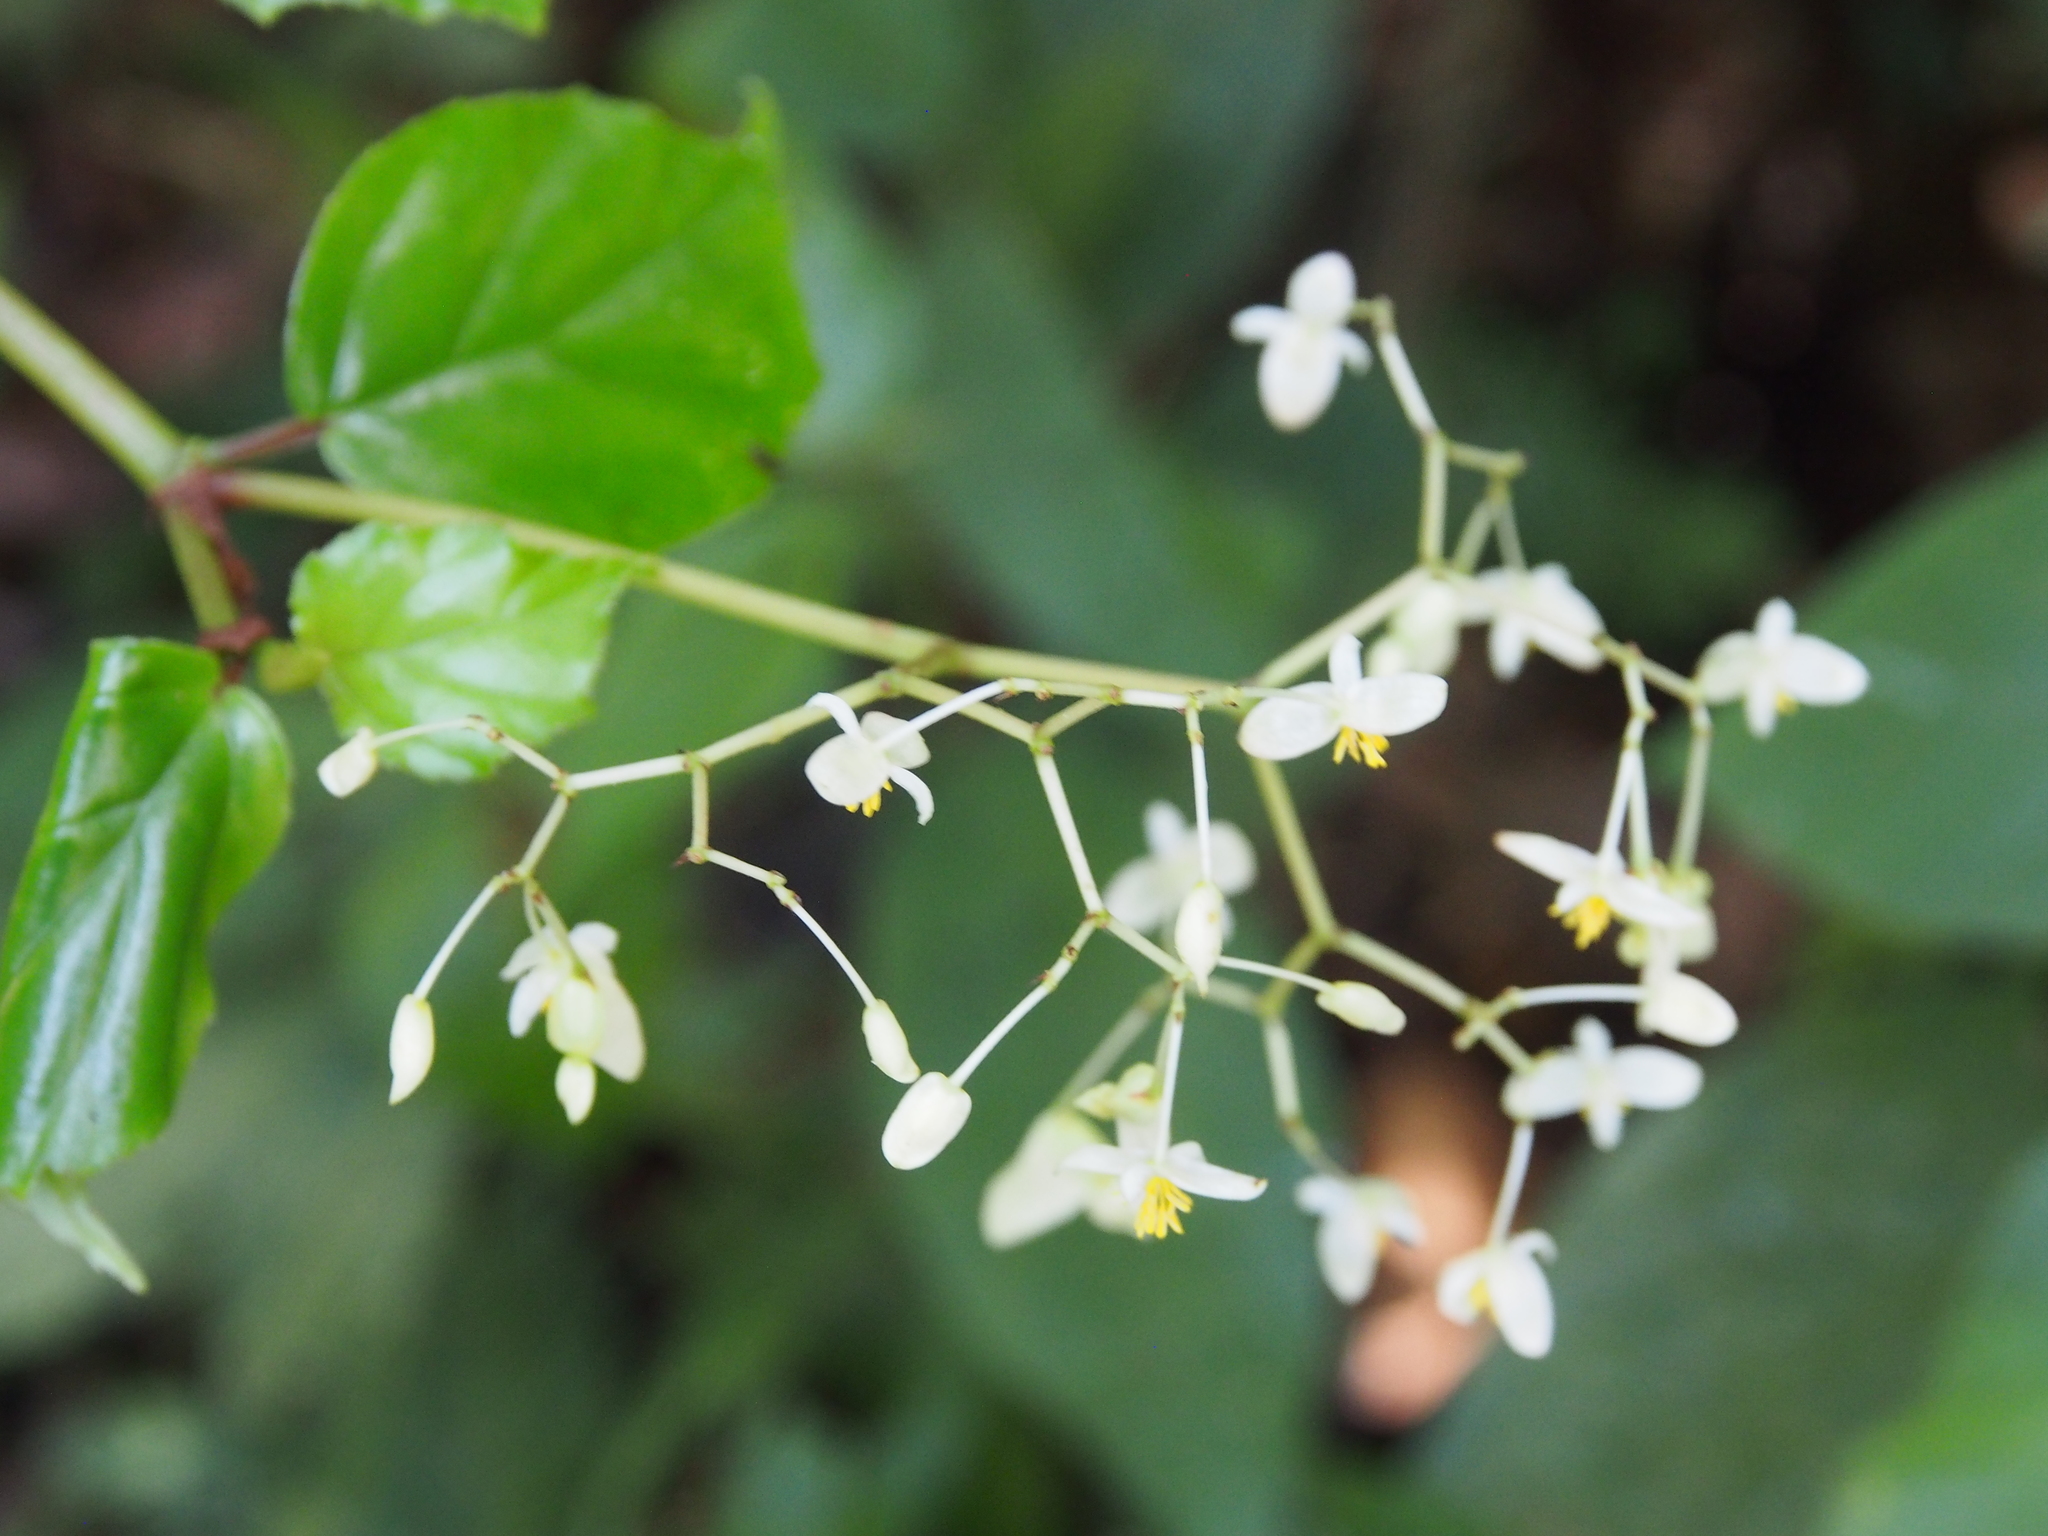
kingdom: Plantae
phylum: Tracheophyta
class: Magnoliopsida
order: Cucurbitales
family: Begoniaceae
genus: Begonia
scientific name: Begonia glabra
